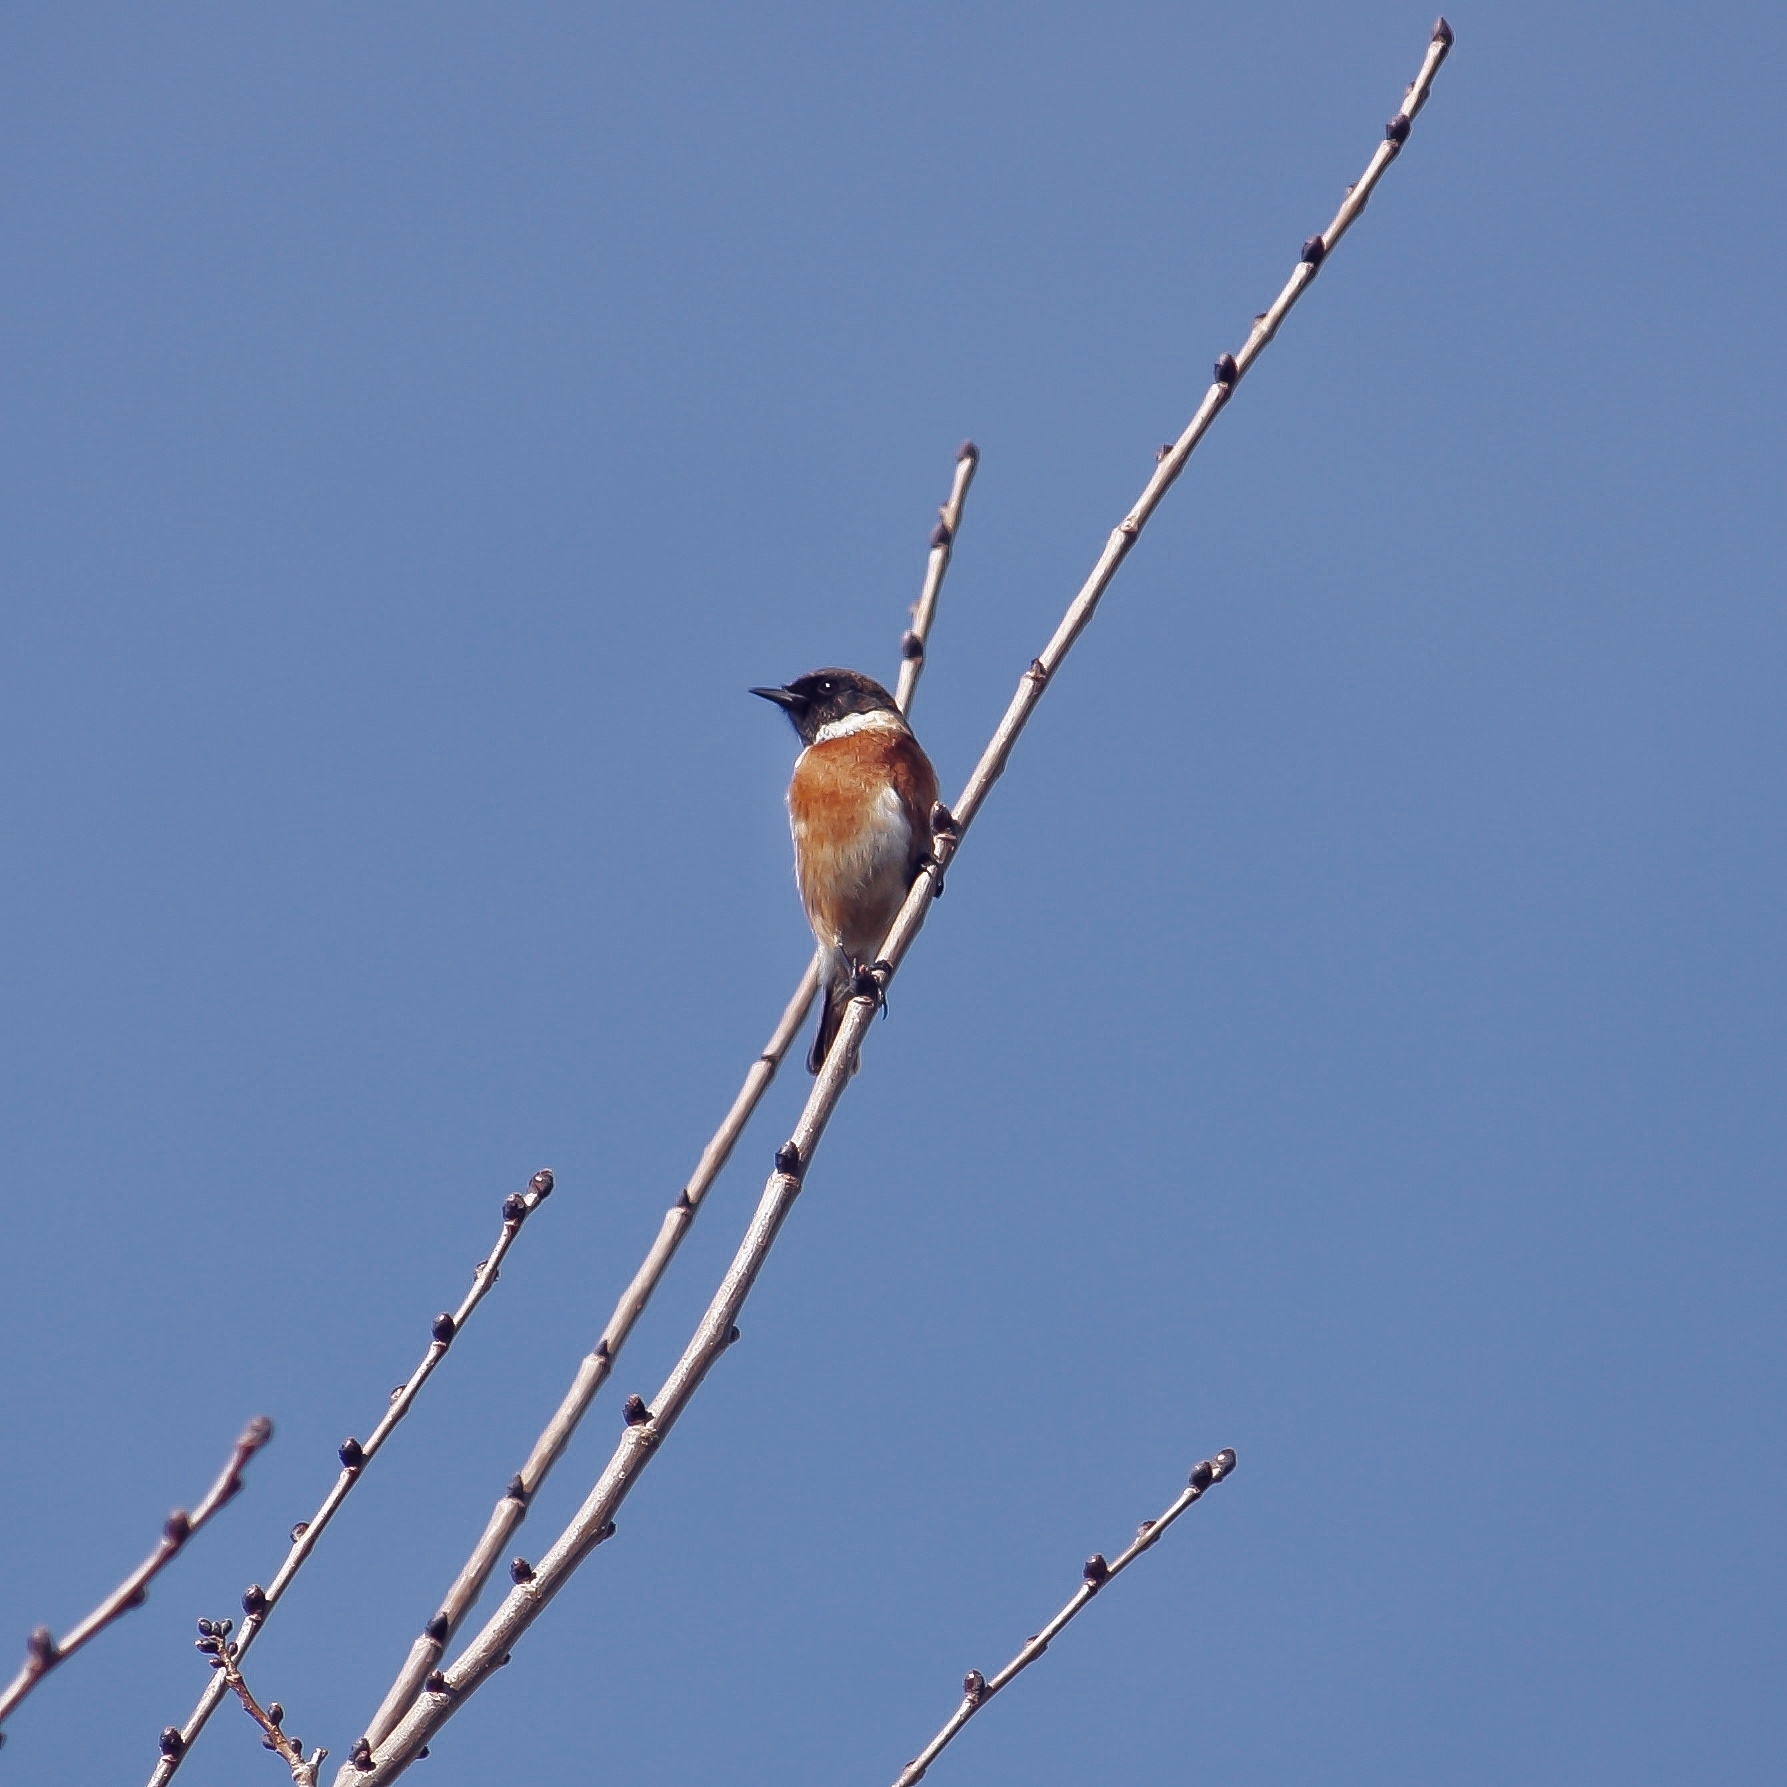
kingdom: Animalia
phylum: Chordata
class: Aves
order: Passeriformes
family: Muscicapidae
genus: Saxicola
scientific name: Saxicola rubicola
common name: European stonechat
